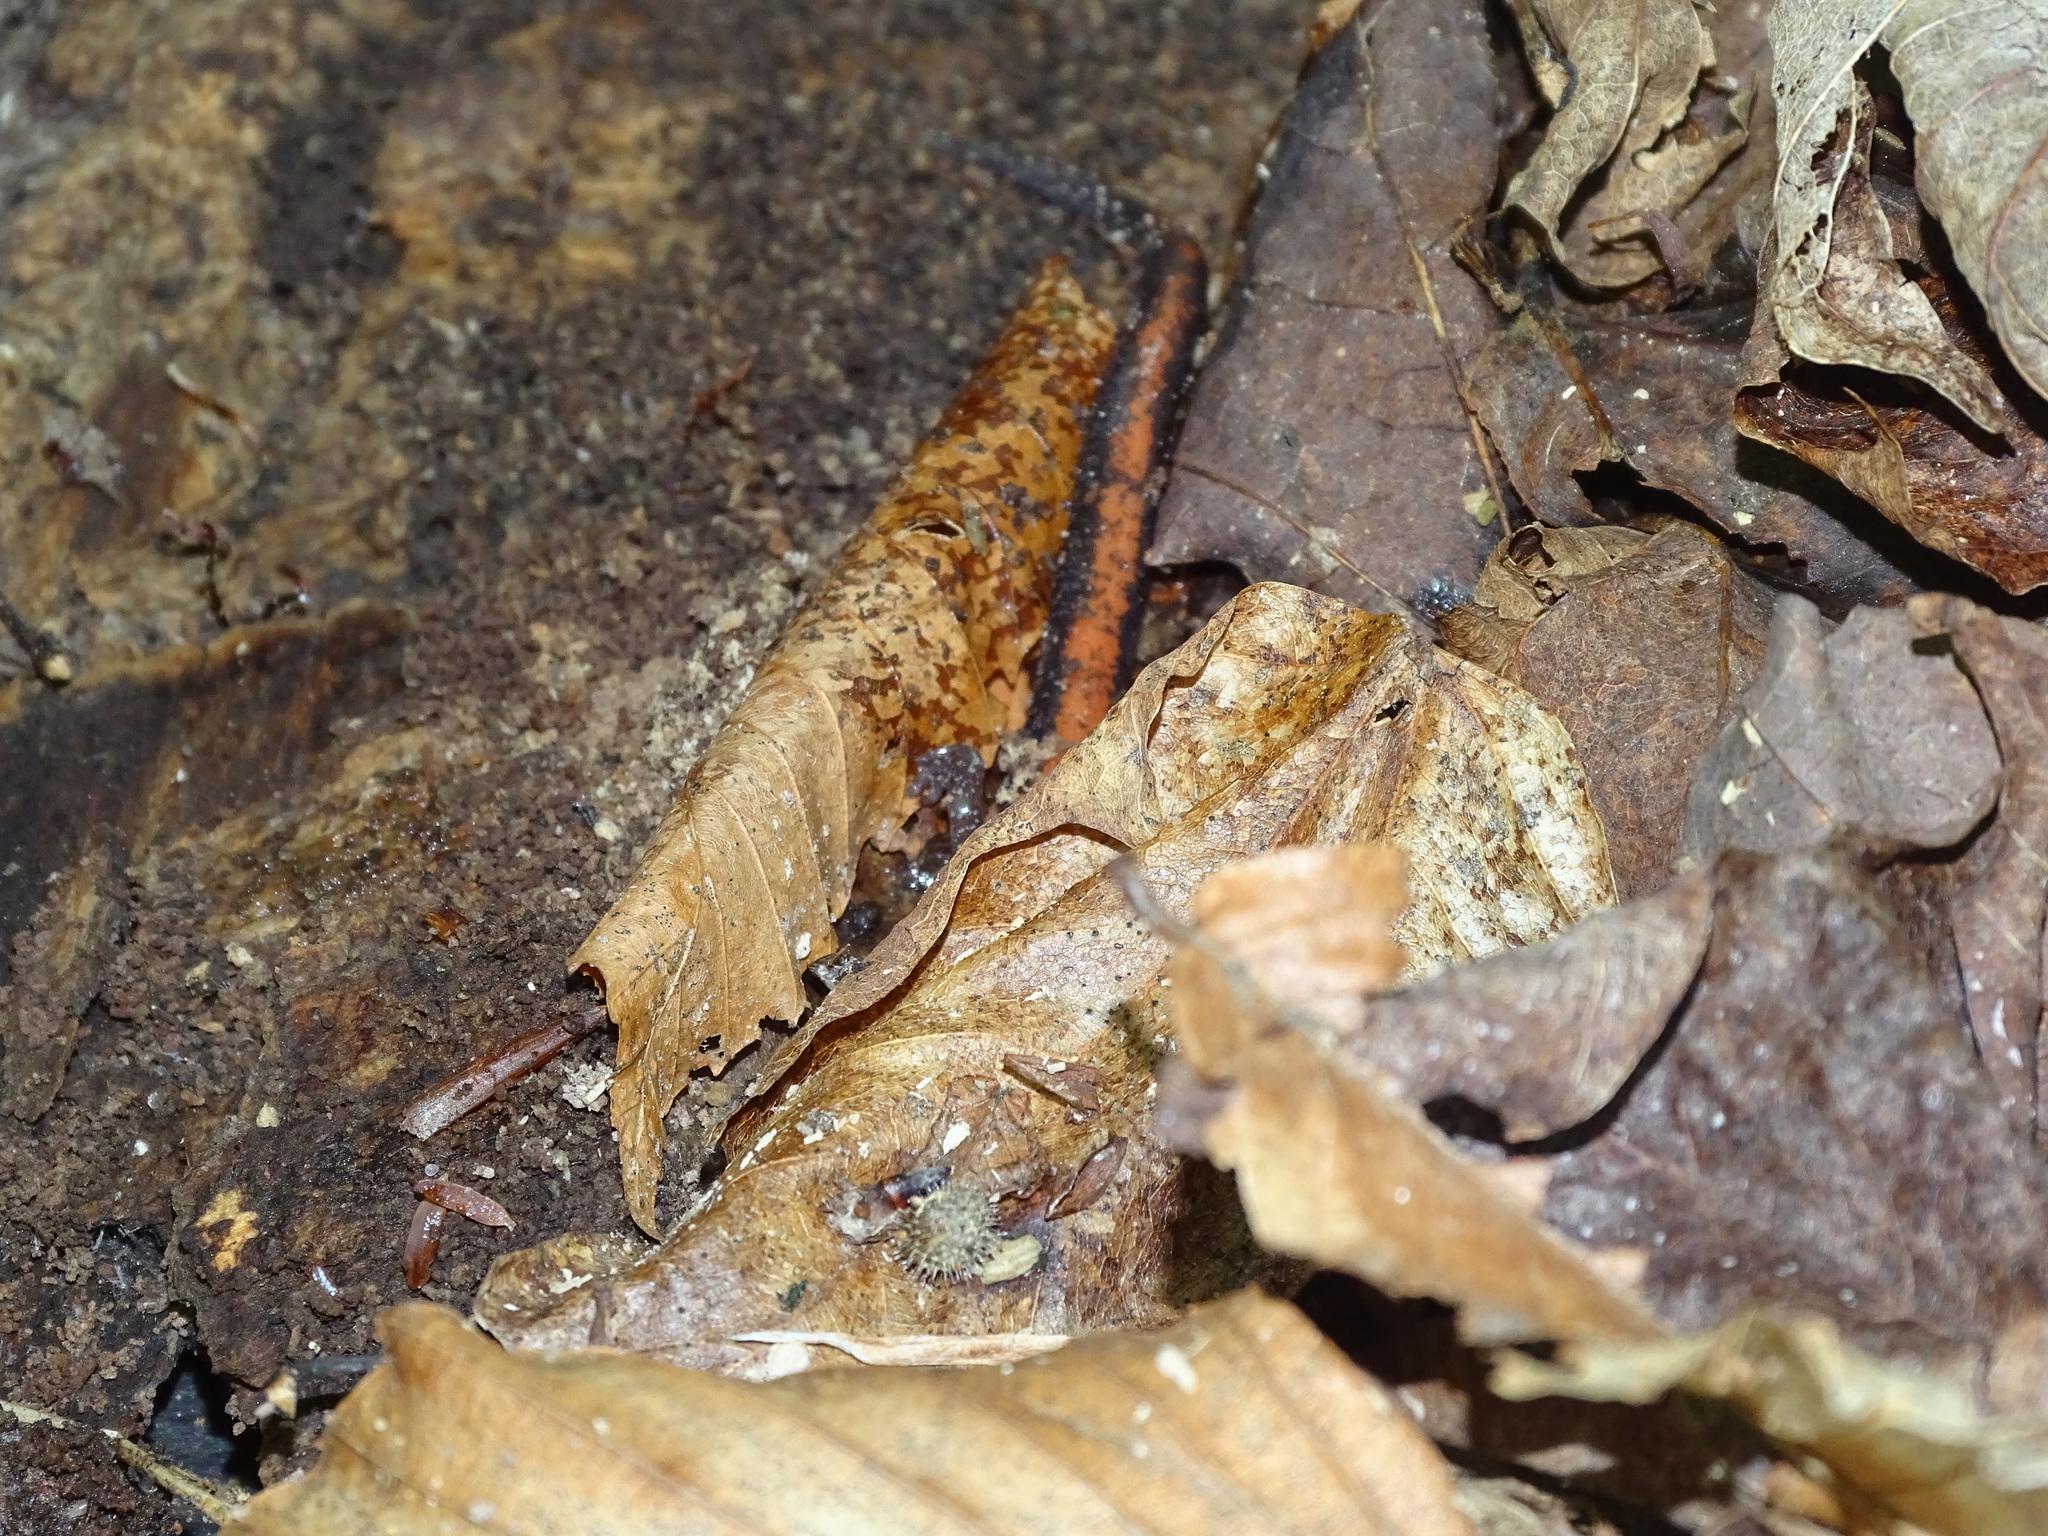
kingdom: Animalia
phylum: Chordata
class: Amphibia
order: Caudata
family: Plethodontidae
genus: Plethodon
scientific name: Plethodon cinereus
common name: Redback salamander
